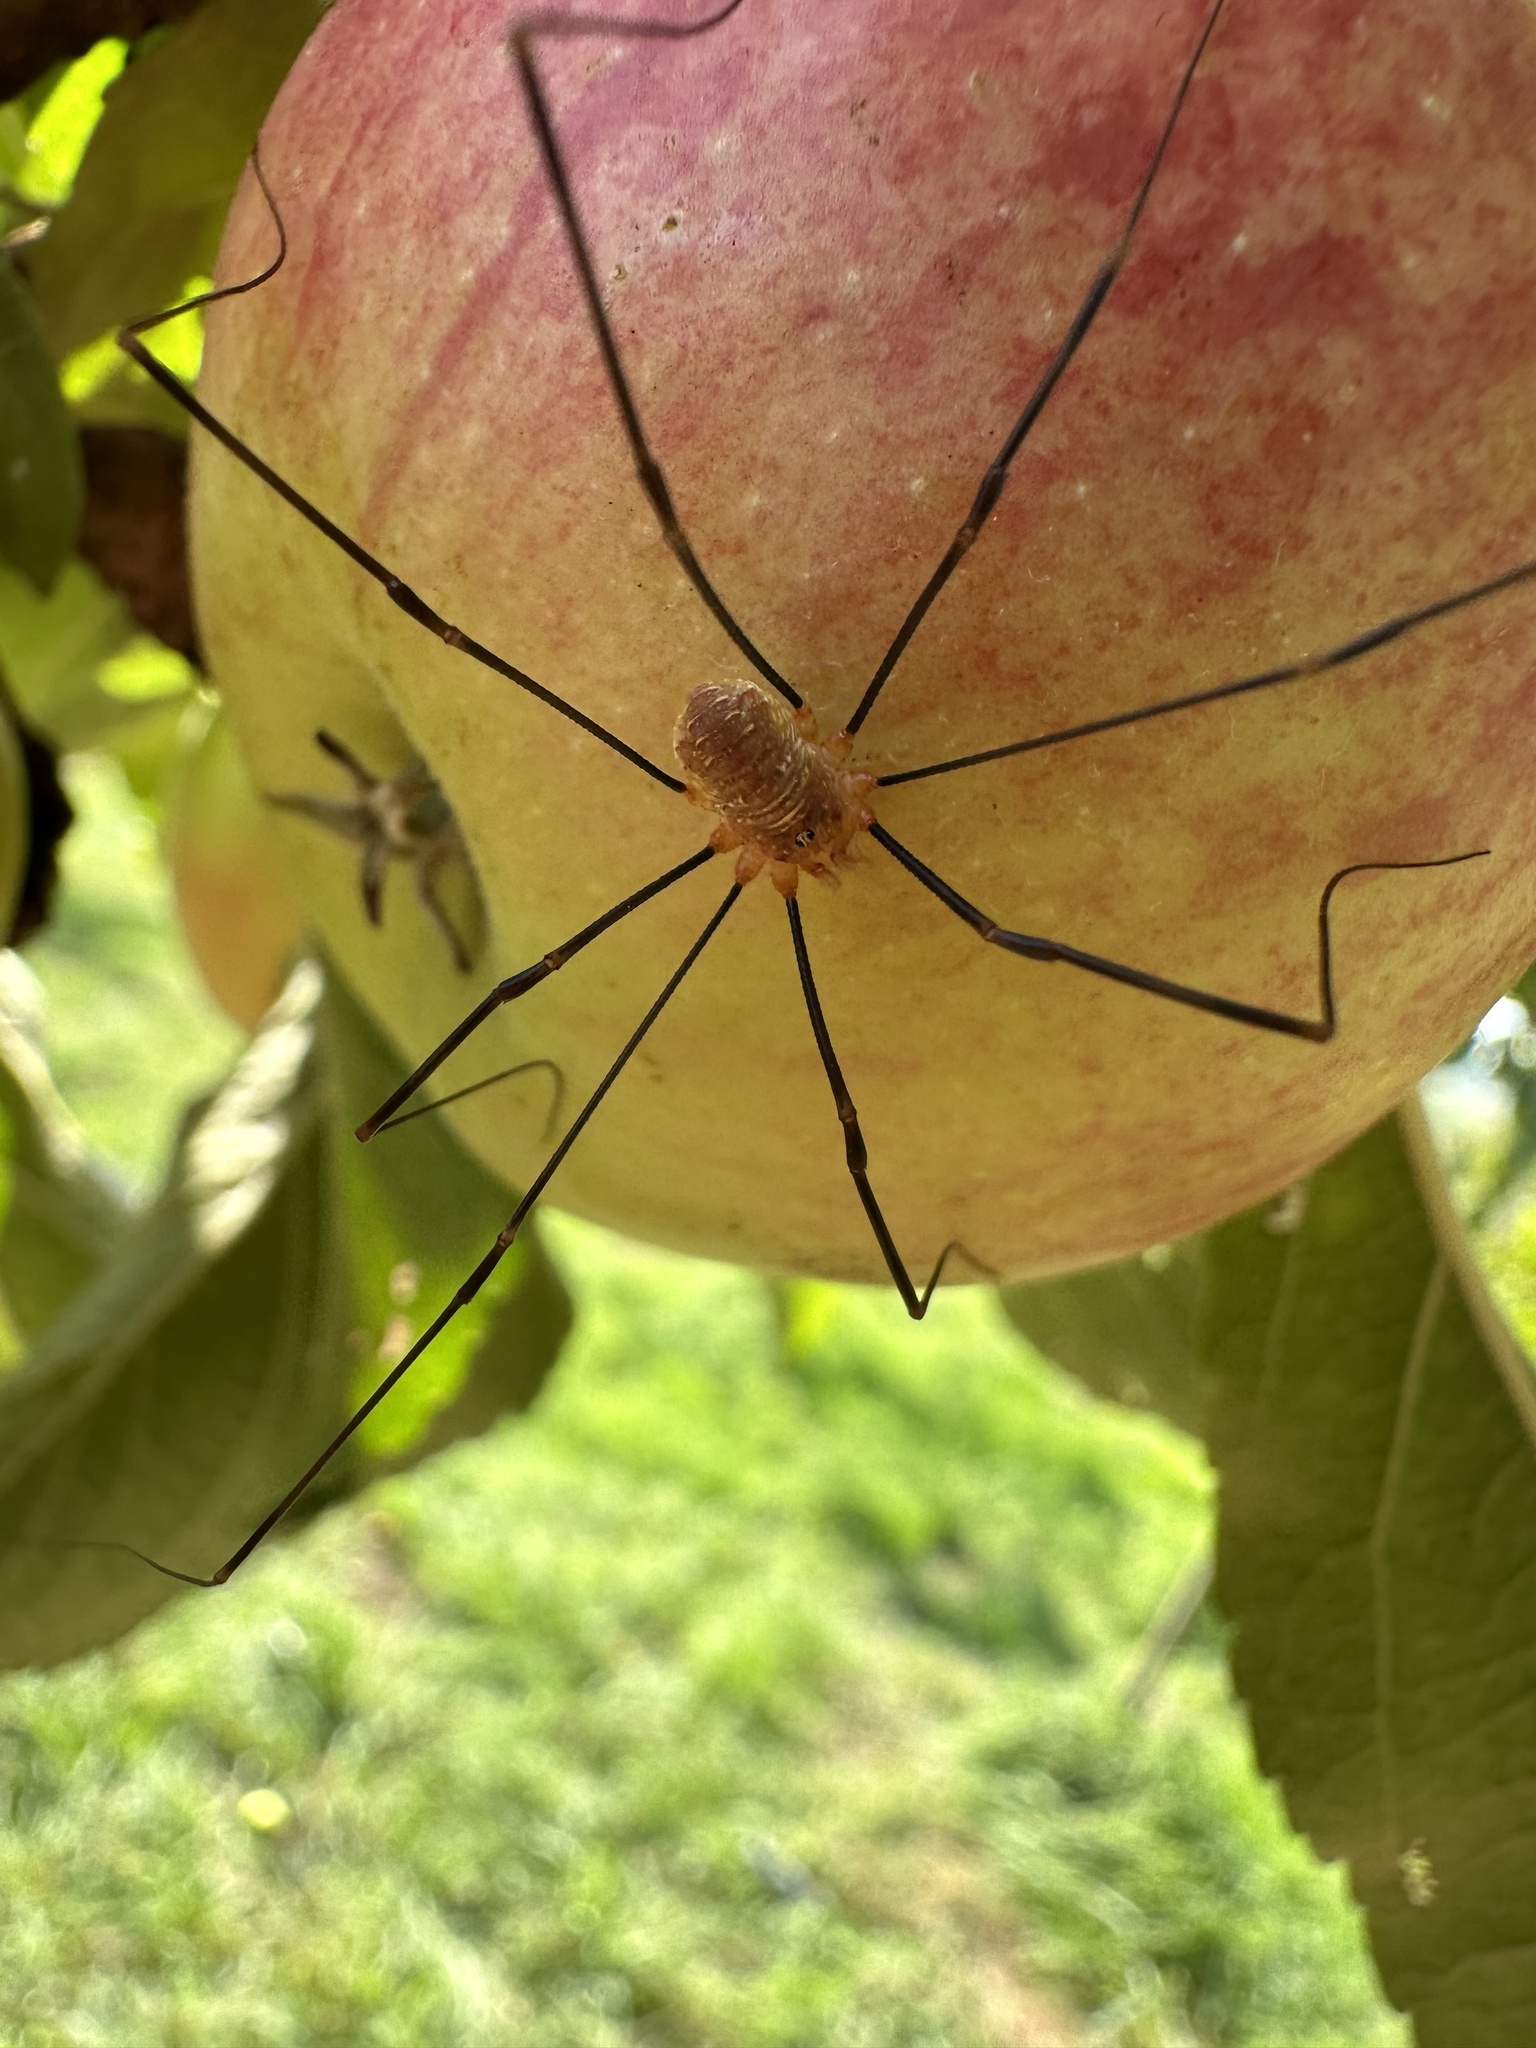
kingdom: Animalia
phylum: Arthropoda
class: Arachnida
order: Opiliones
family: Phalangiidae
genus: Opilio
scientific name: Opilio canestrinii
